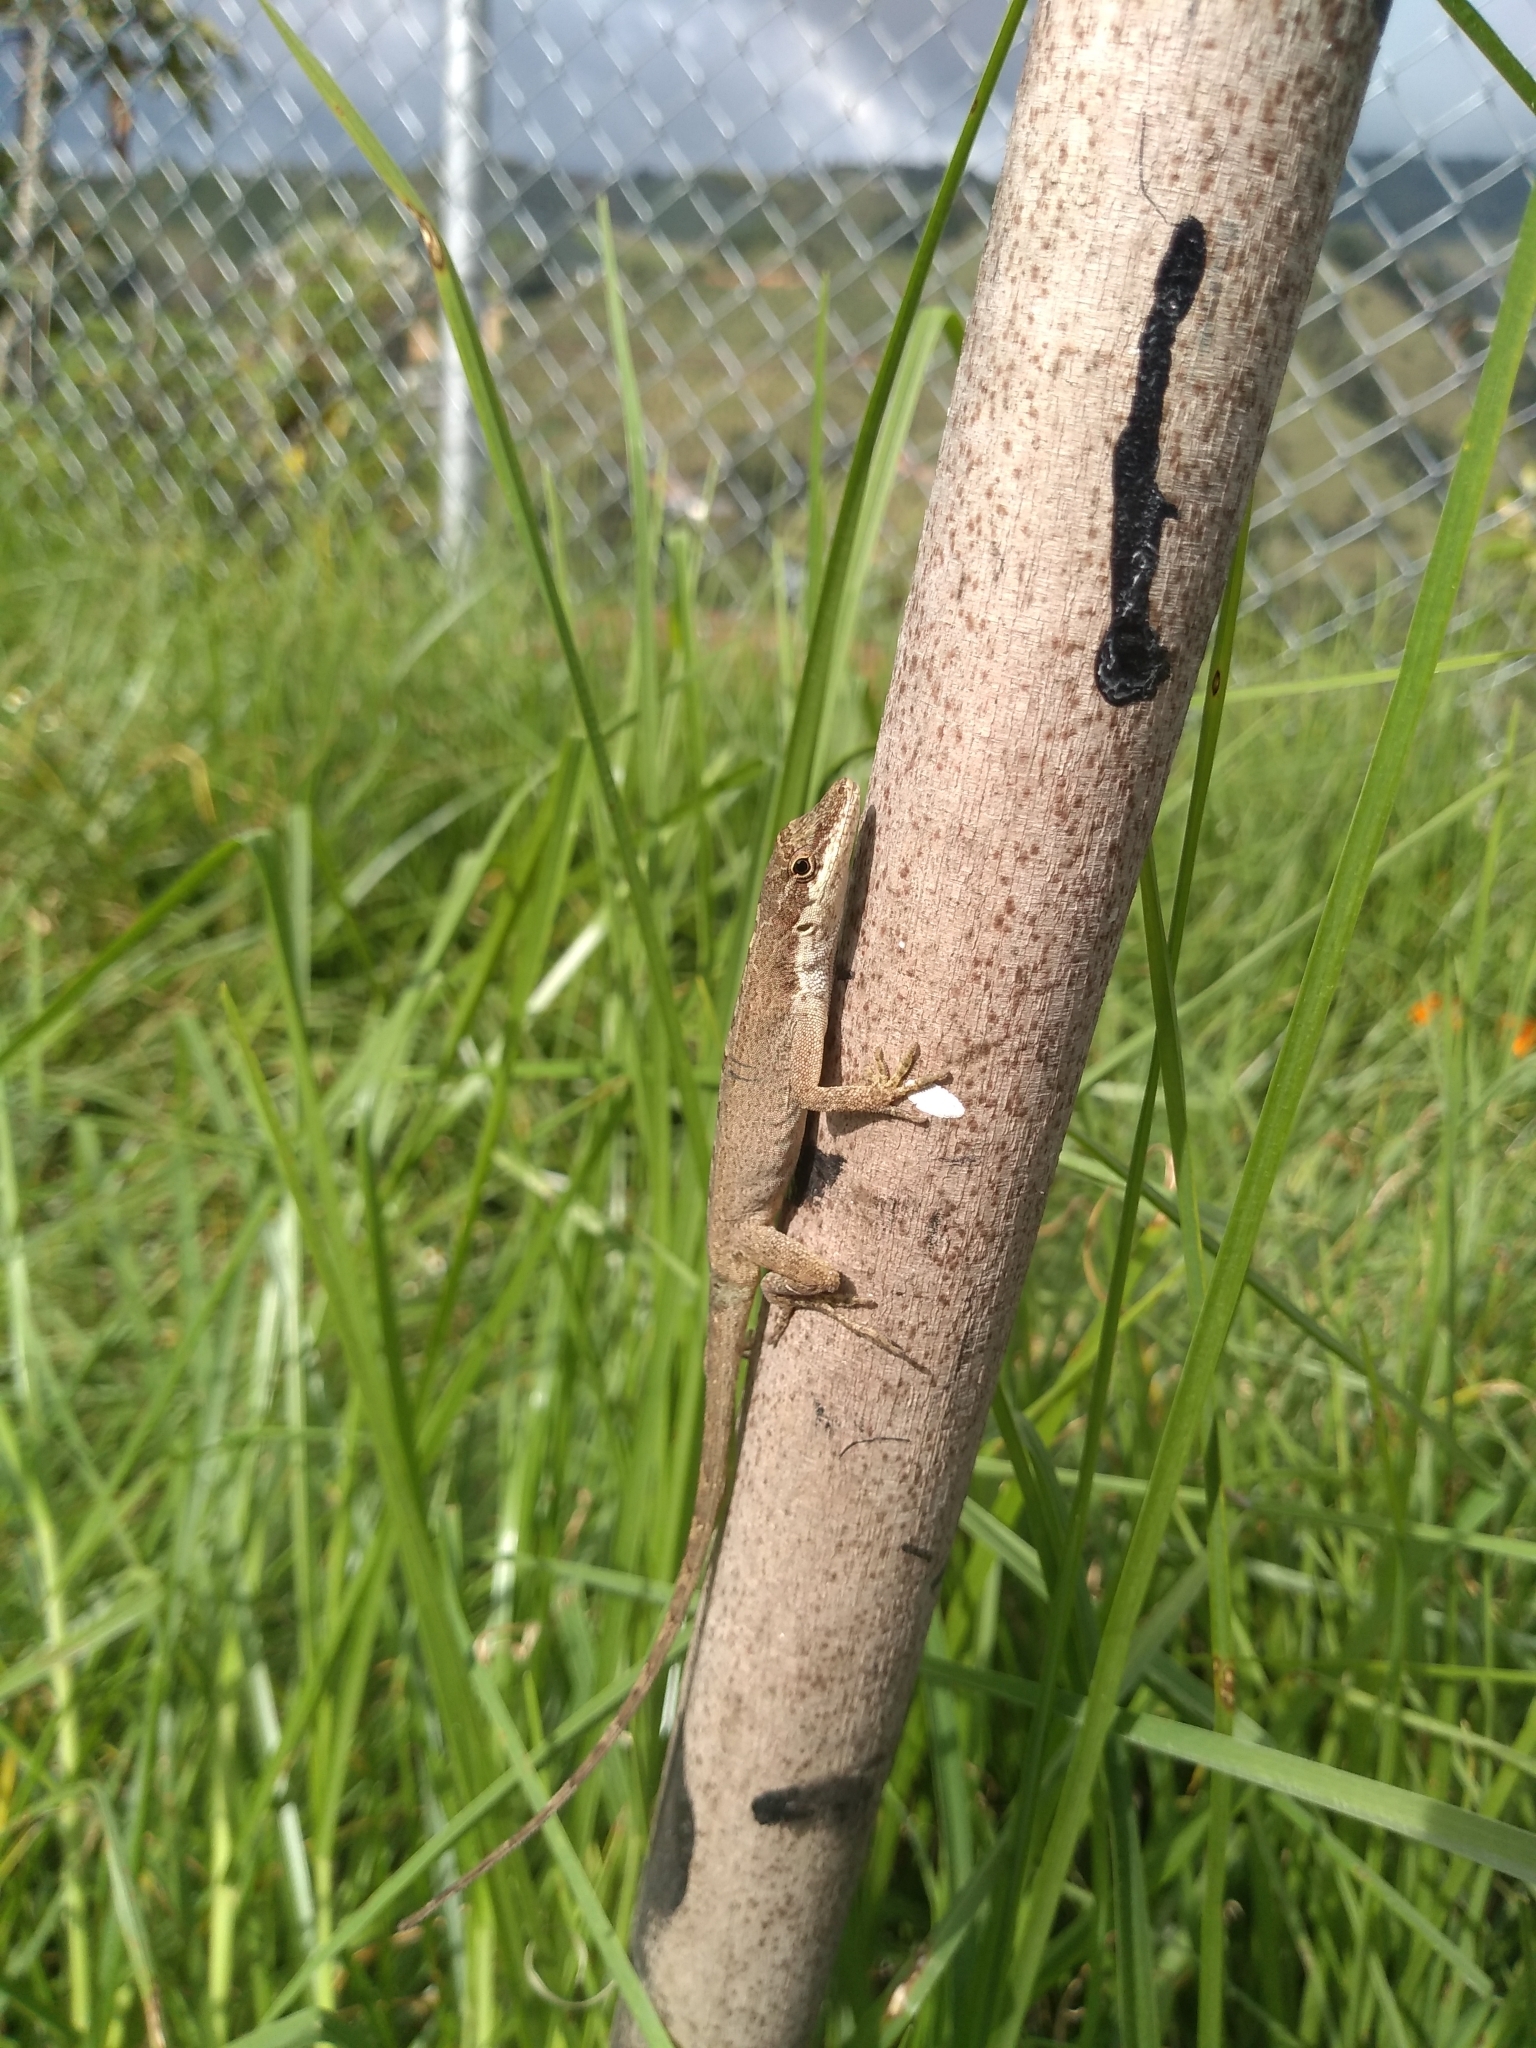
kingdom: Animalia
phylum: Chordata
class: Squamata
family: Dactyloidae
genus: Anolis
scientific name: Anolis mariarum
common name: Blemished anole
